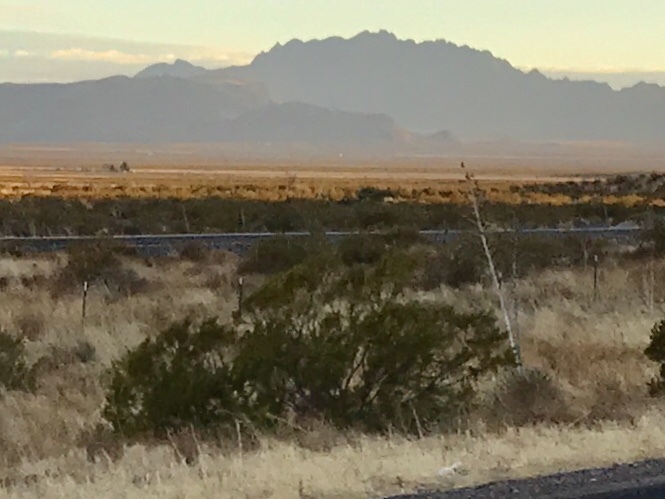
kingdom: Plantae
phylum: Tracheophyta
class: Magnoliopsida
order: Zygophyllales
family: Zygophyllaceae
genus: Larrea
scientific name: Larrea tridentata
